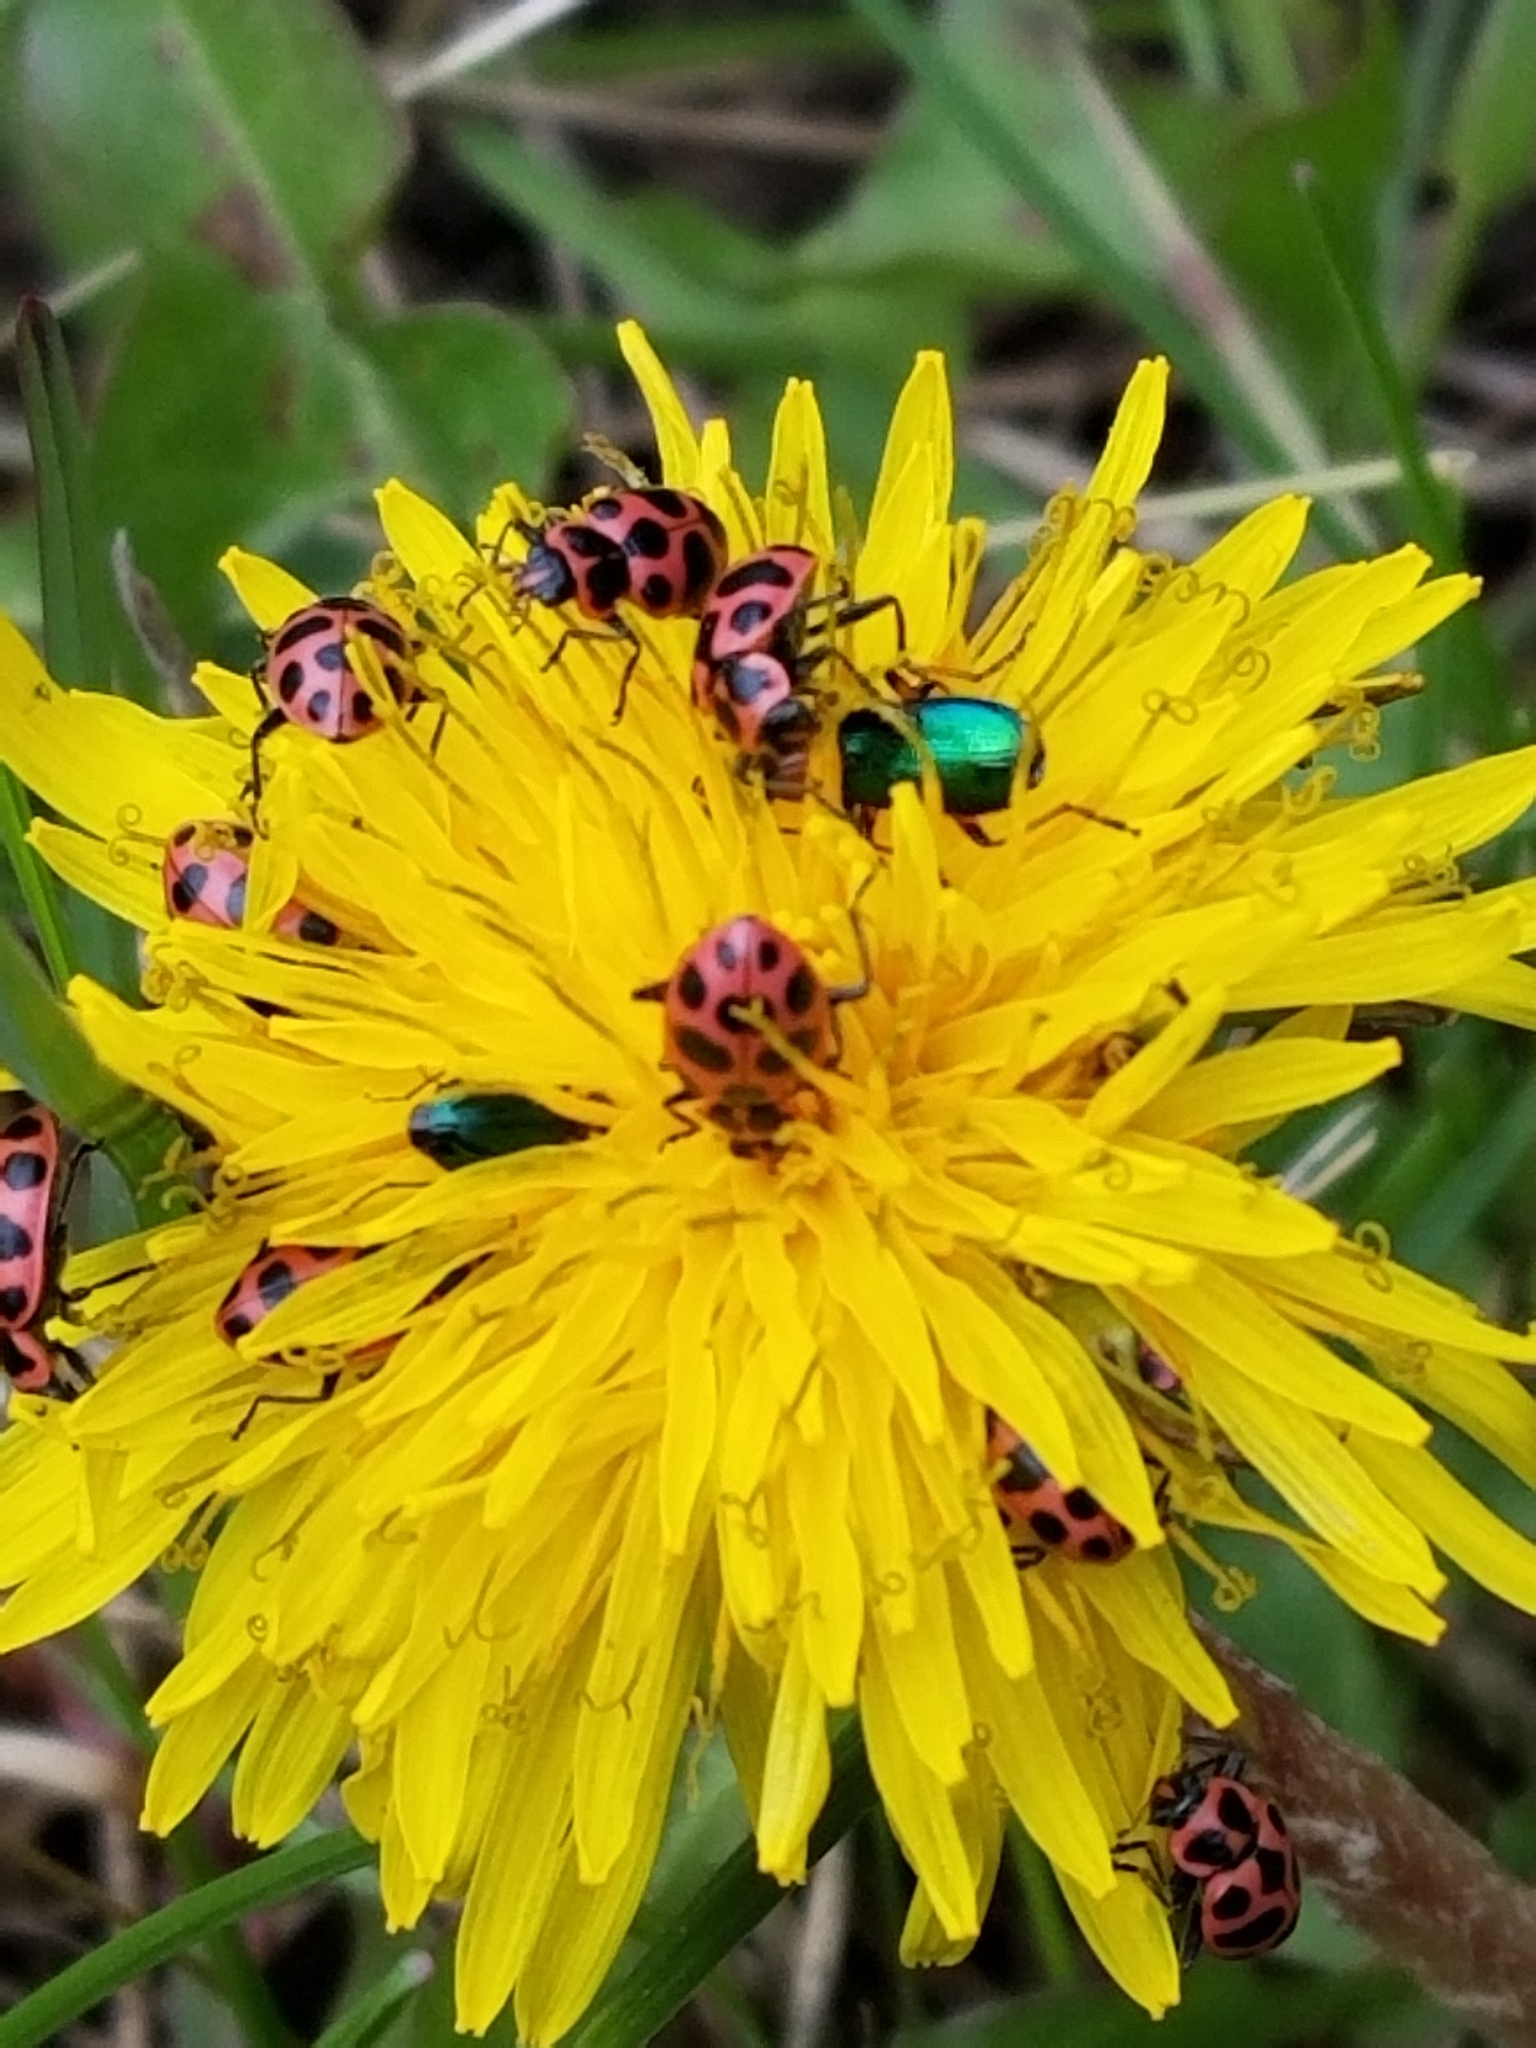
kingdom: Animalia
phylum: Arthropoda
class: Insecta
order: Coleoptera
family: Coccinellidae
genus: Coleomegilla
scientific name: Coleomegilla maculata
